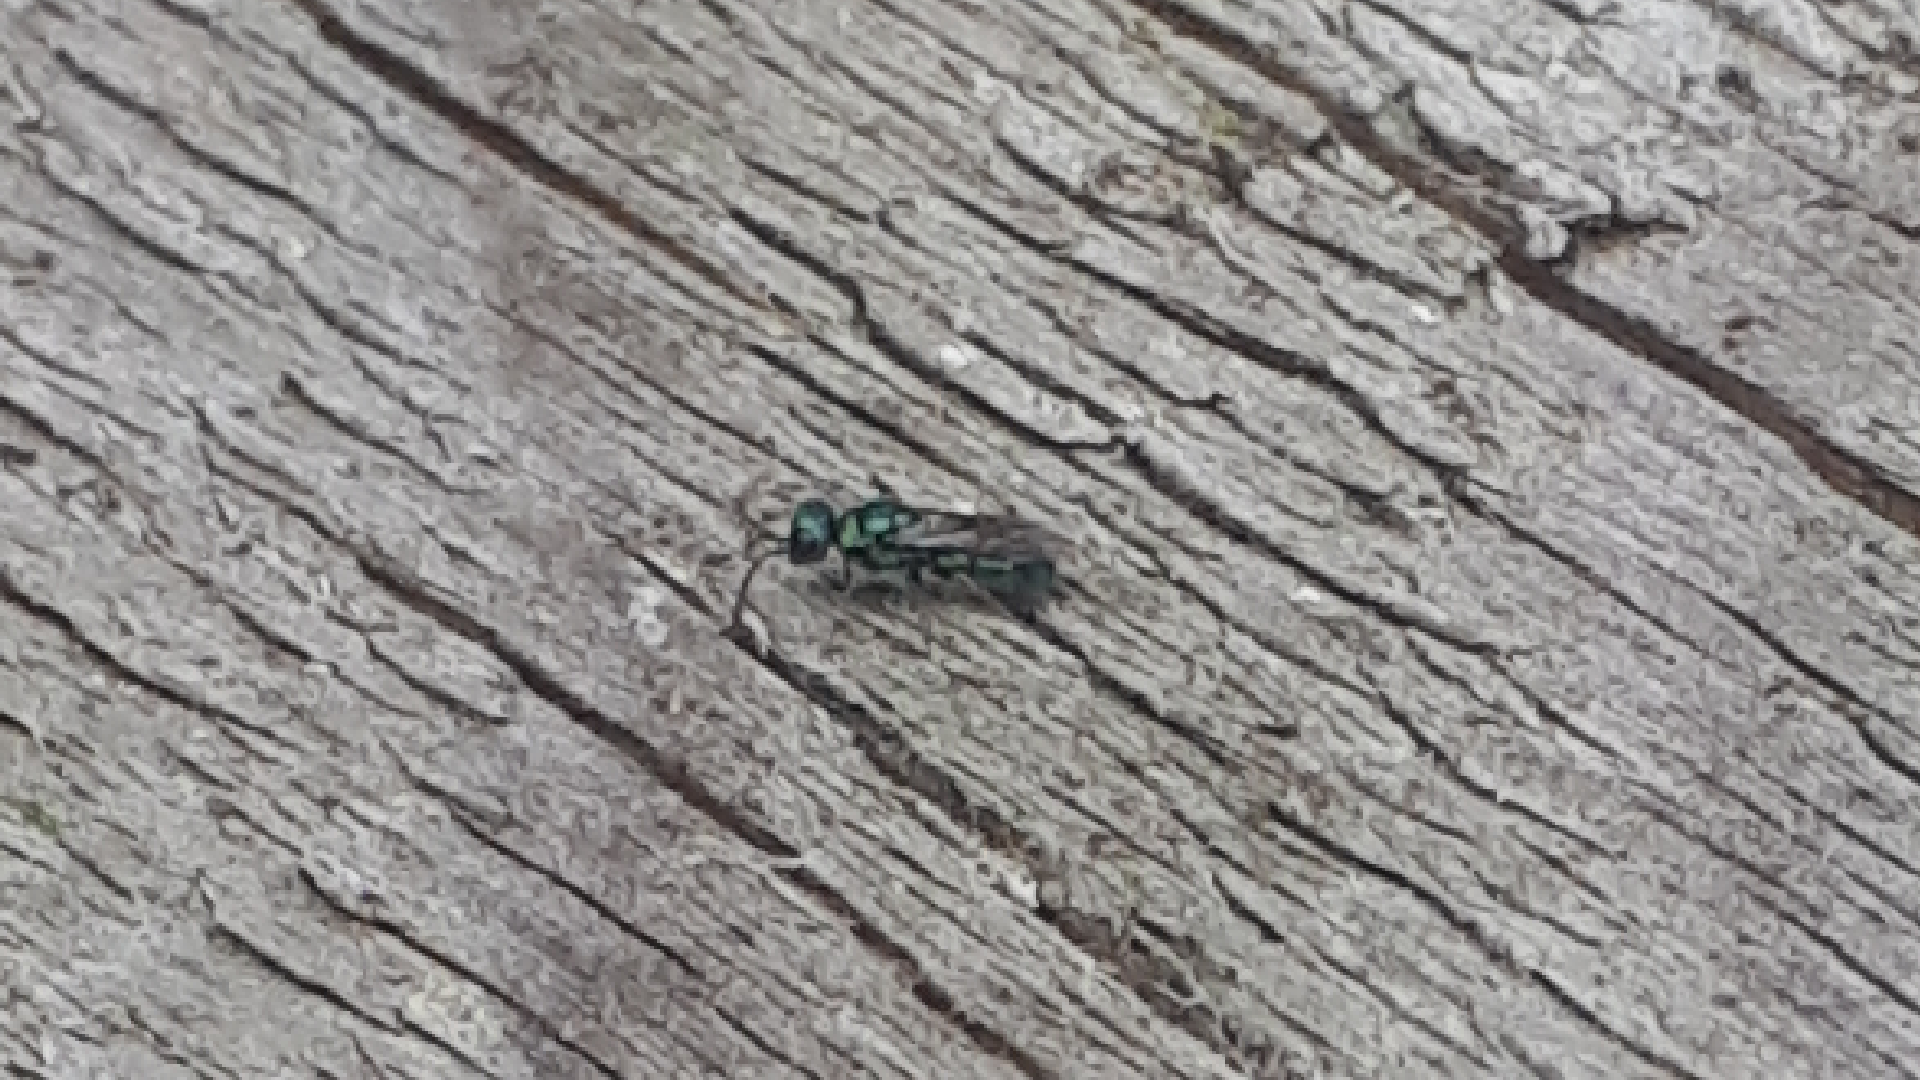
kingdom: Animalia
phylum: Arthropoda
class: Insecta
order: Hymenoptera
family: Pompilidae
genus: Pepsis
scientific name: Pepsis cyanea
